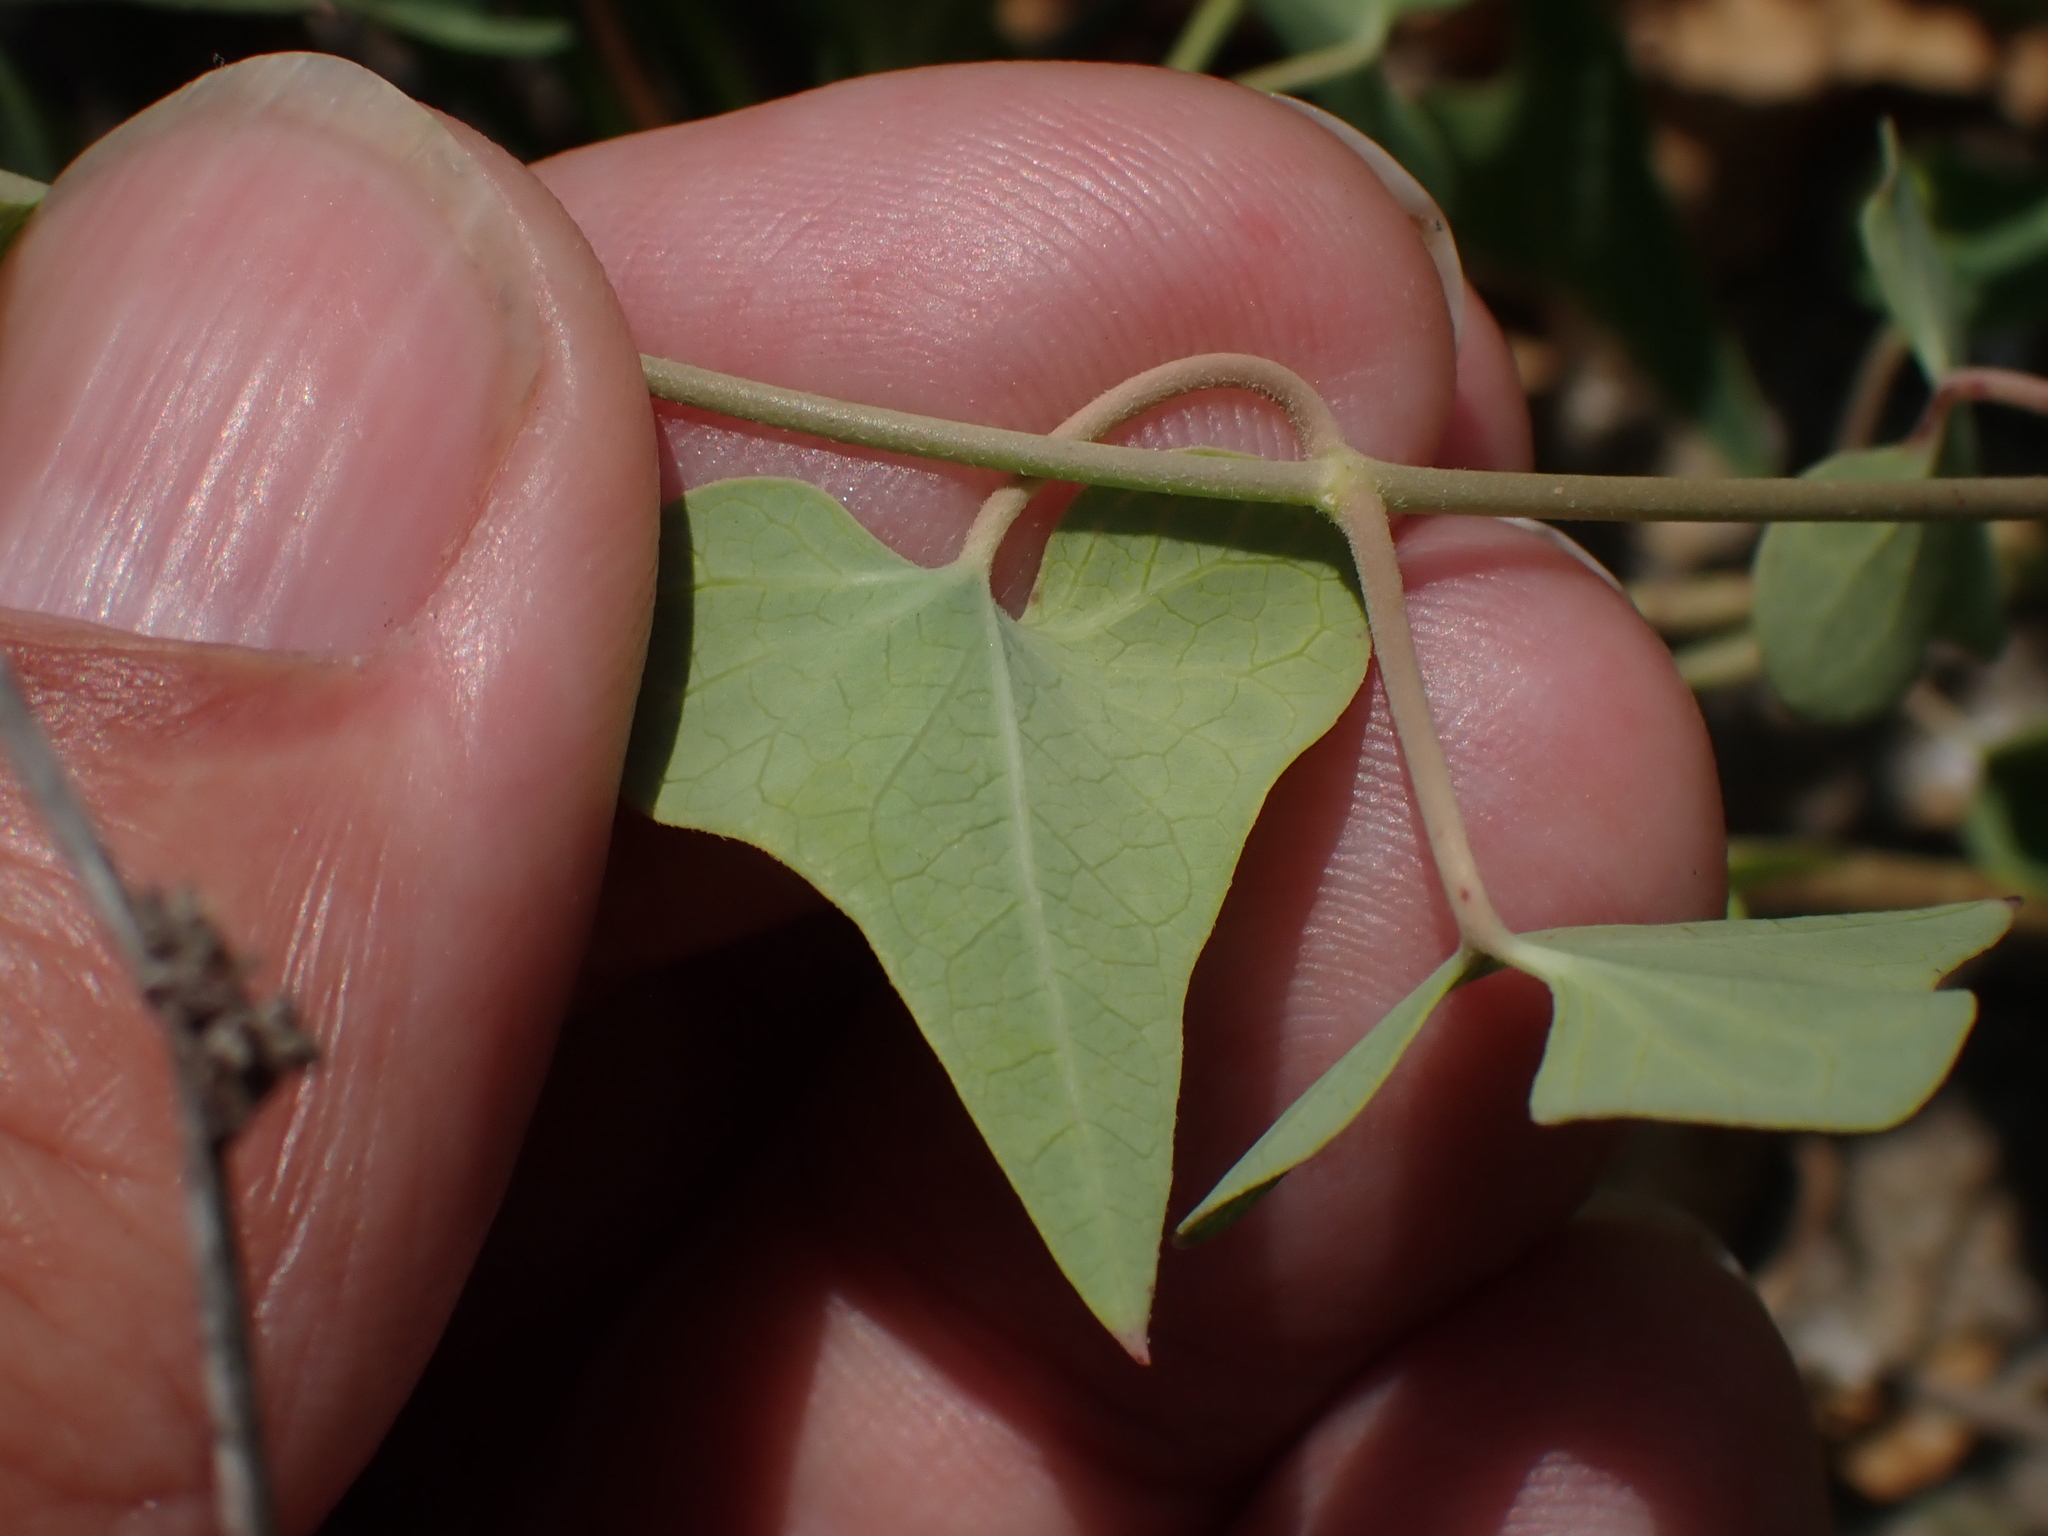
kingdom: Plantae
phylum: Tracheophyta
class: Magnoliopsida
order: Gentianales
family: Apocynaceae
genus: Cynanchum
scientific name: Cynanchum acutum
